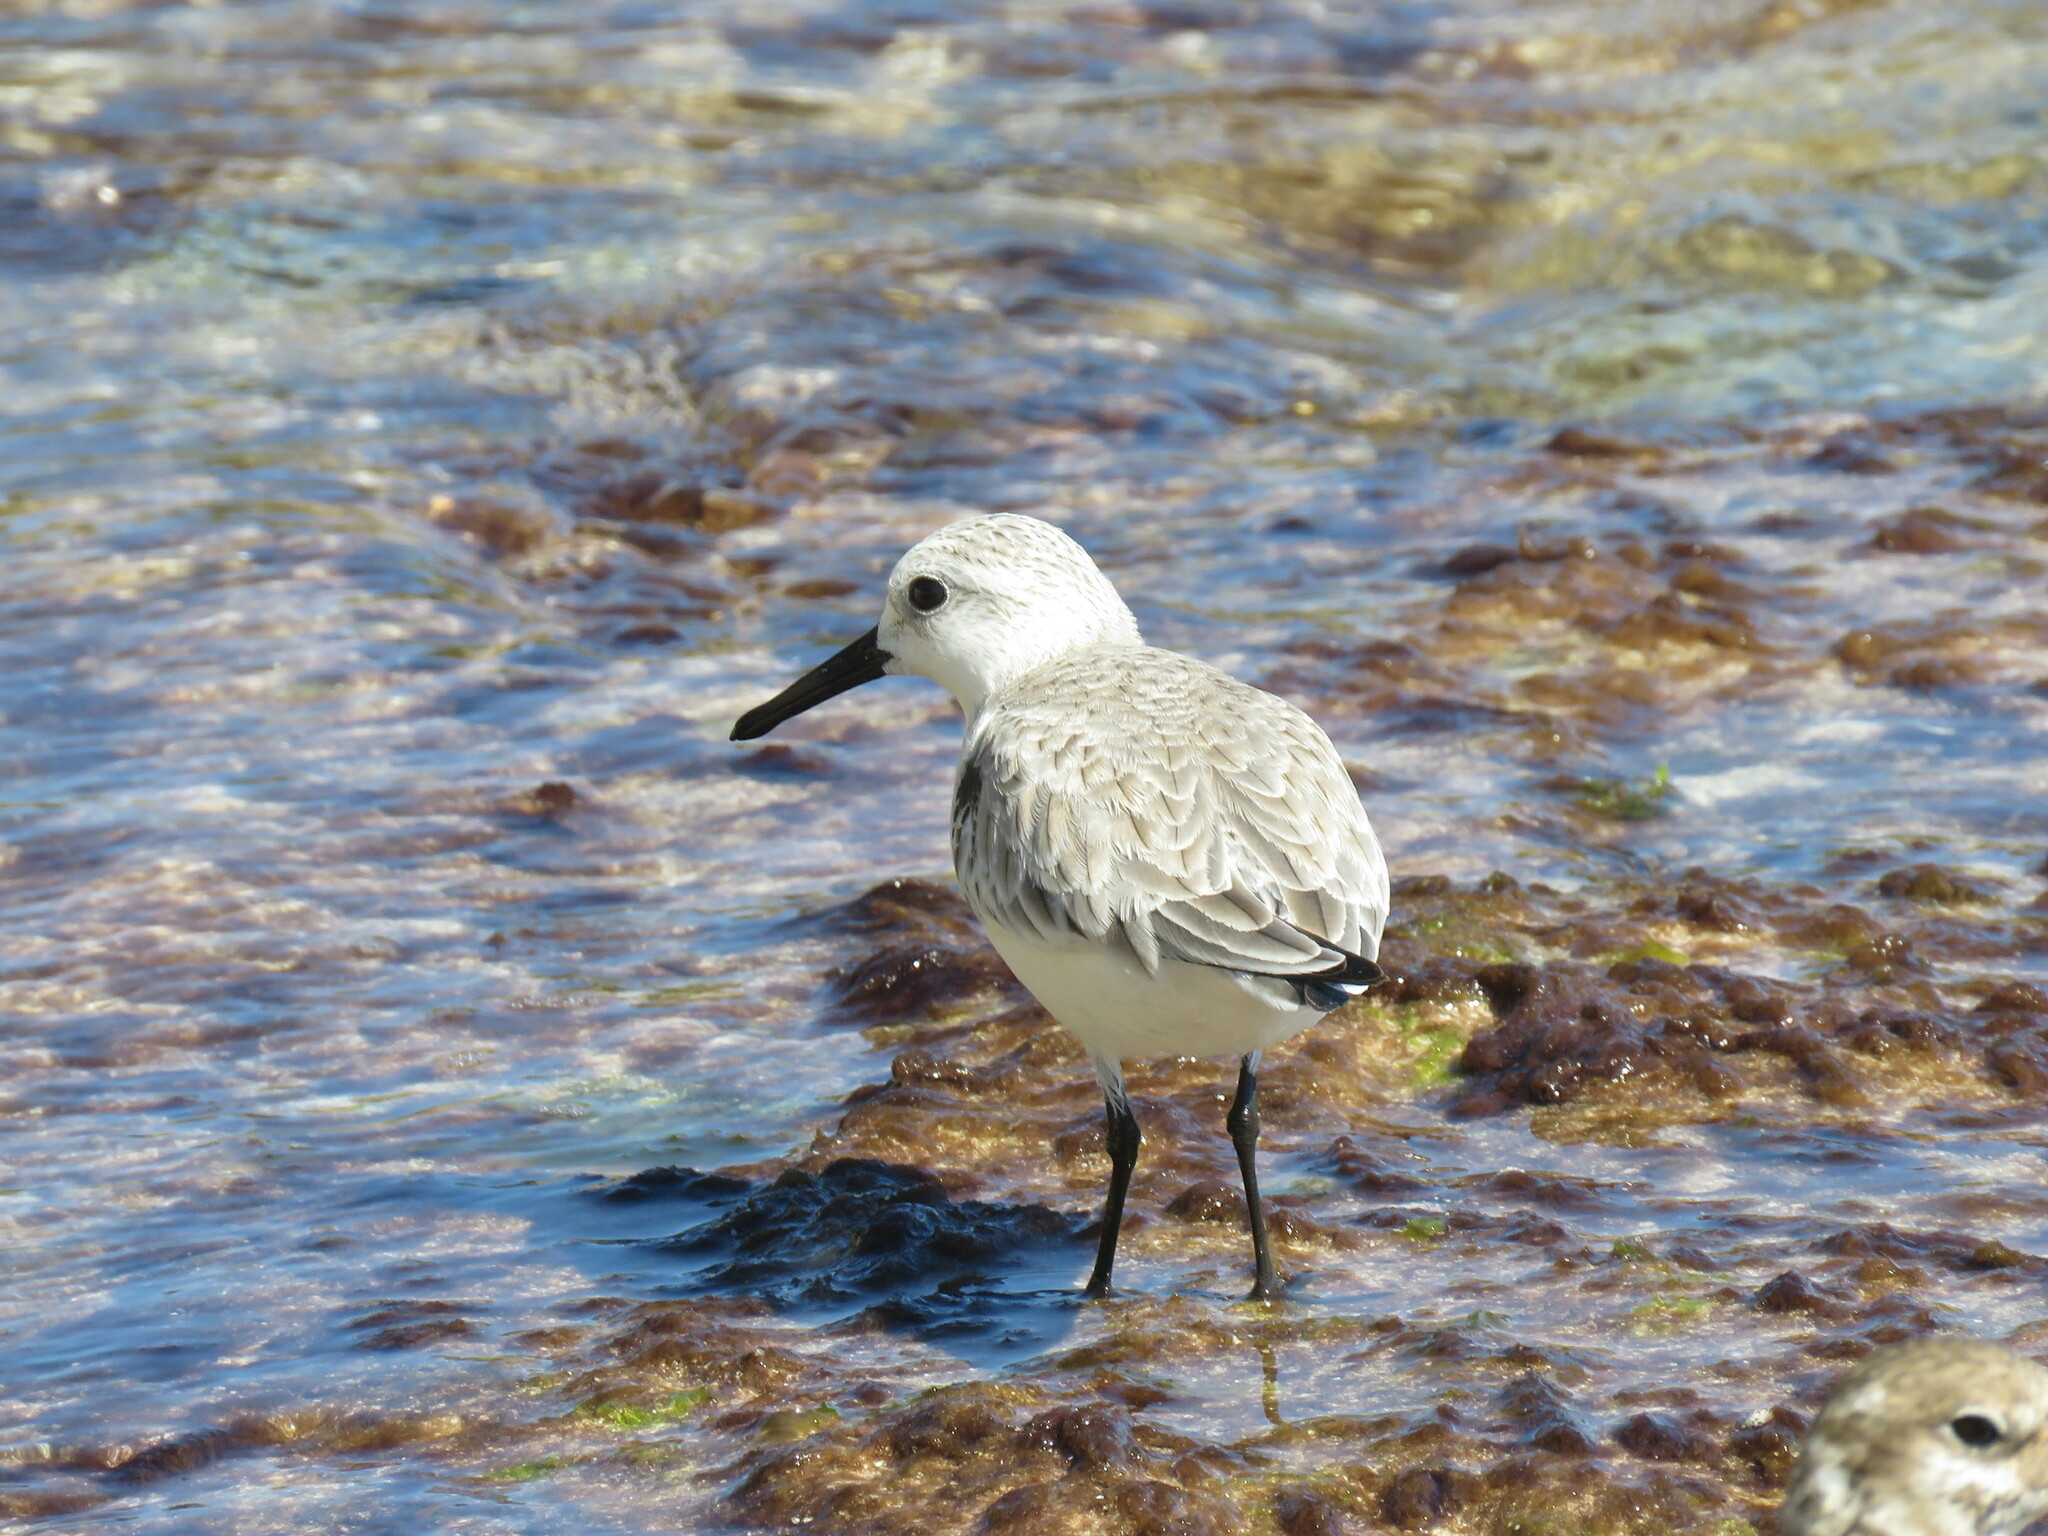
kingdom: Animalia
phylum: Chordata
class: Aves
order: Charadriiformes
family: Scolopacidae
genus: Calidris
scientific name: Calidris alba
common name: Sanderling
